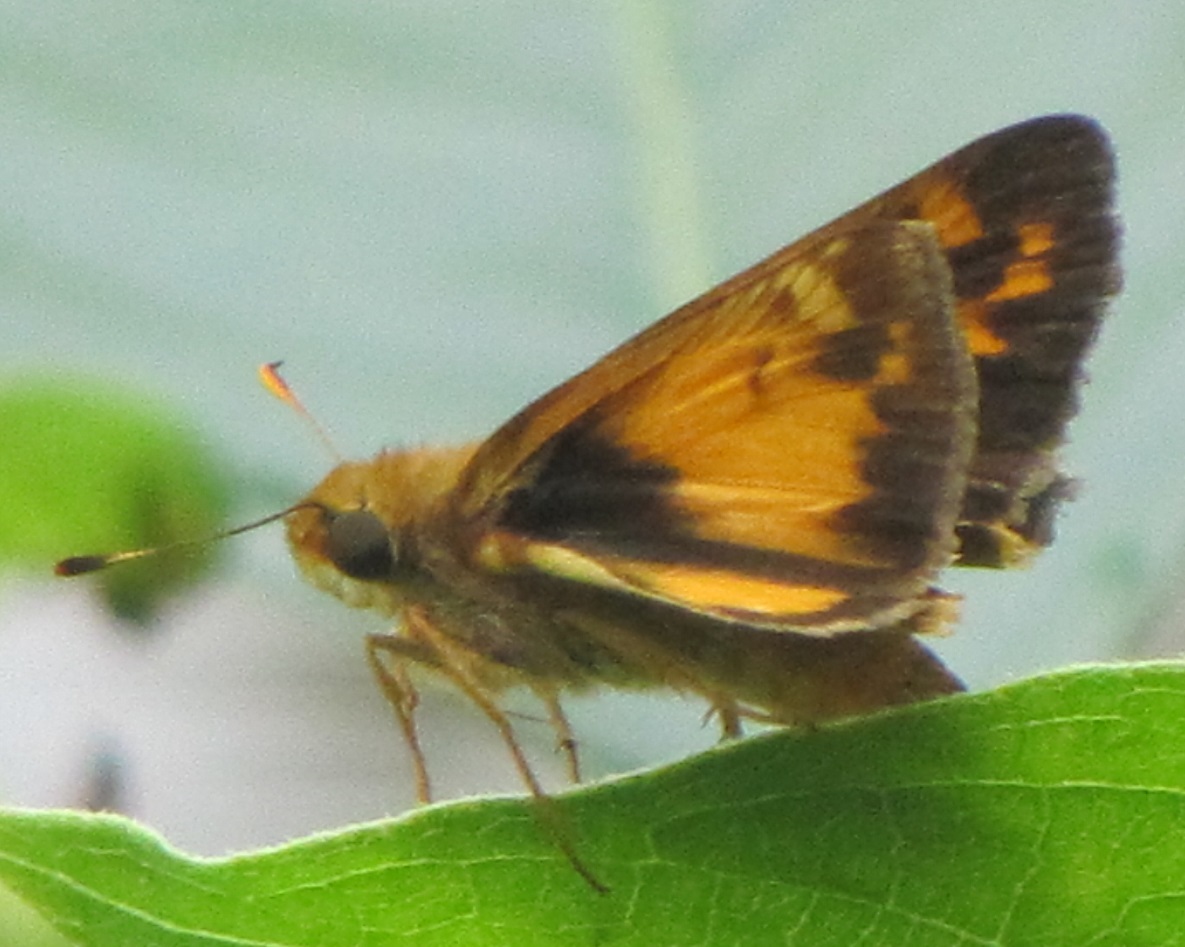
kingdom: Animalia
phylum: Arthropoda
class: Insecta
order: Lepidoptera
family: Hesperiidae
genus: Lon
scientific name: Lon zabulon
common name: Zabulon skipper
